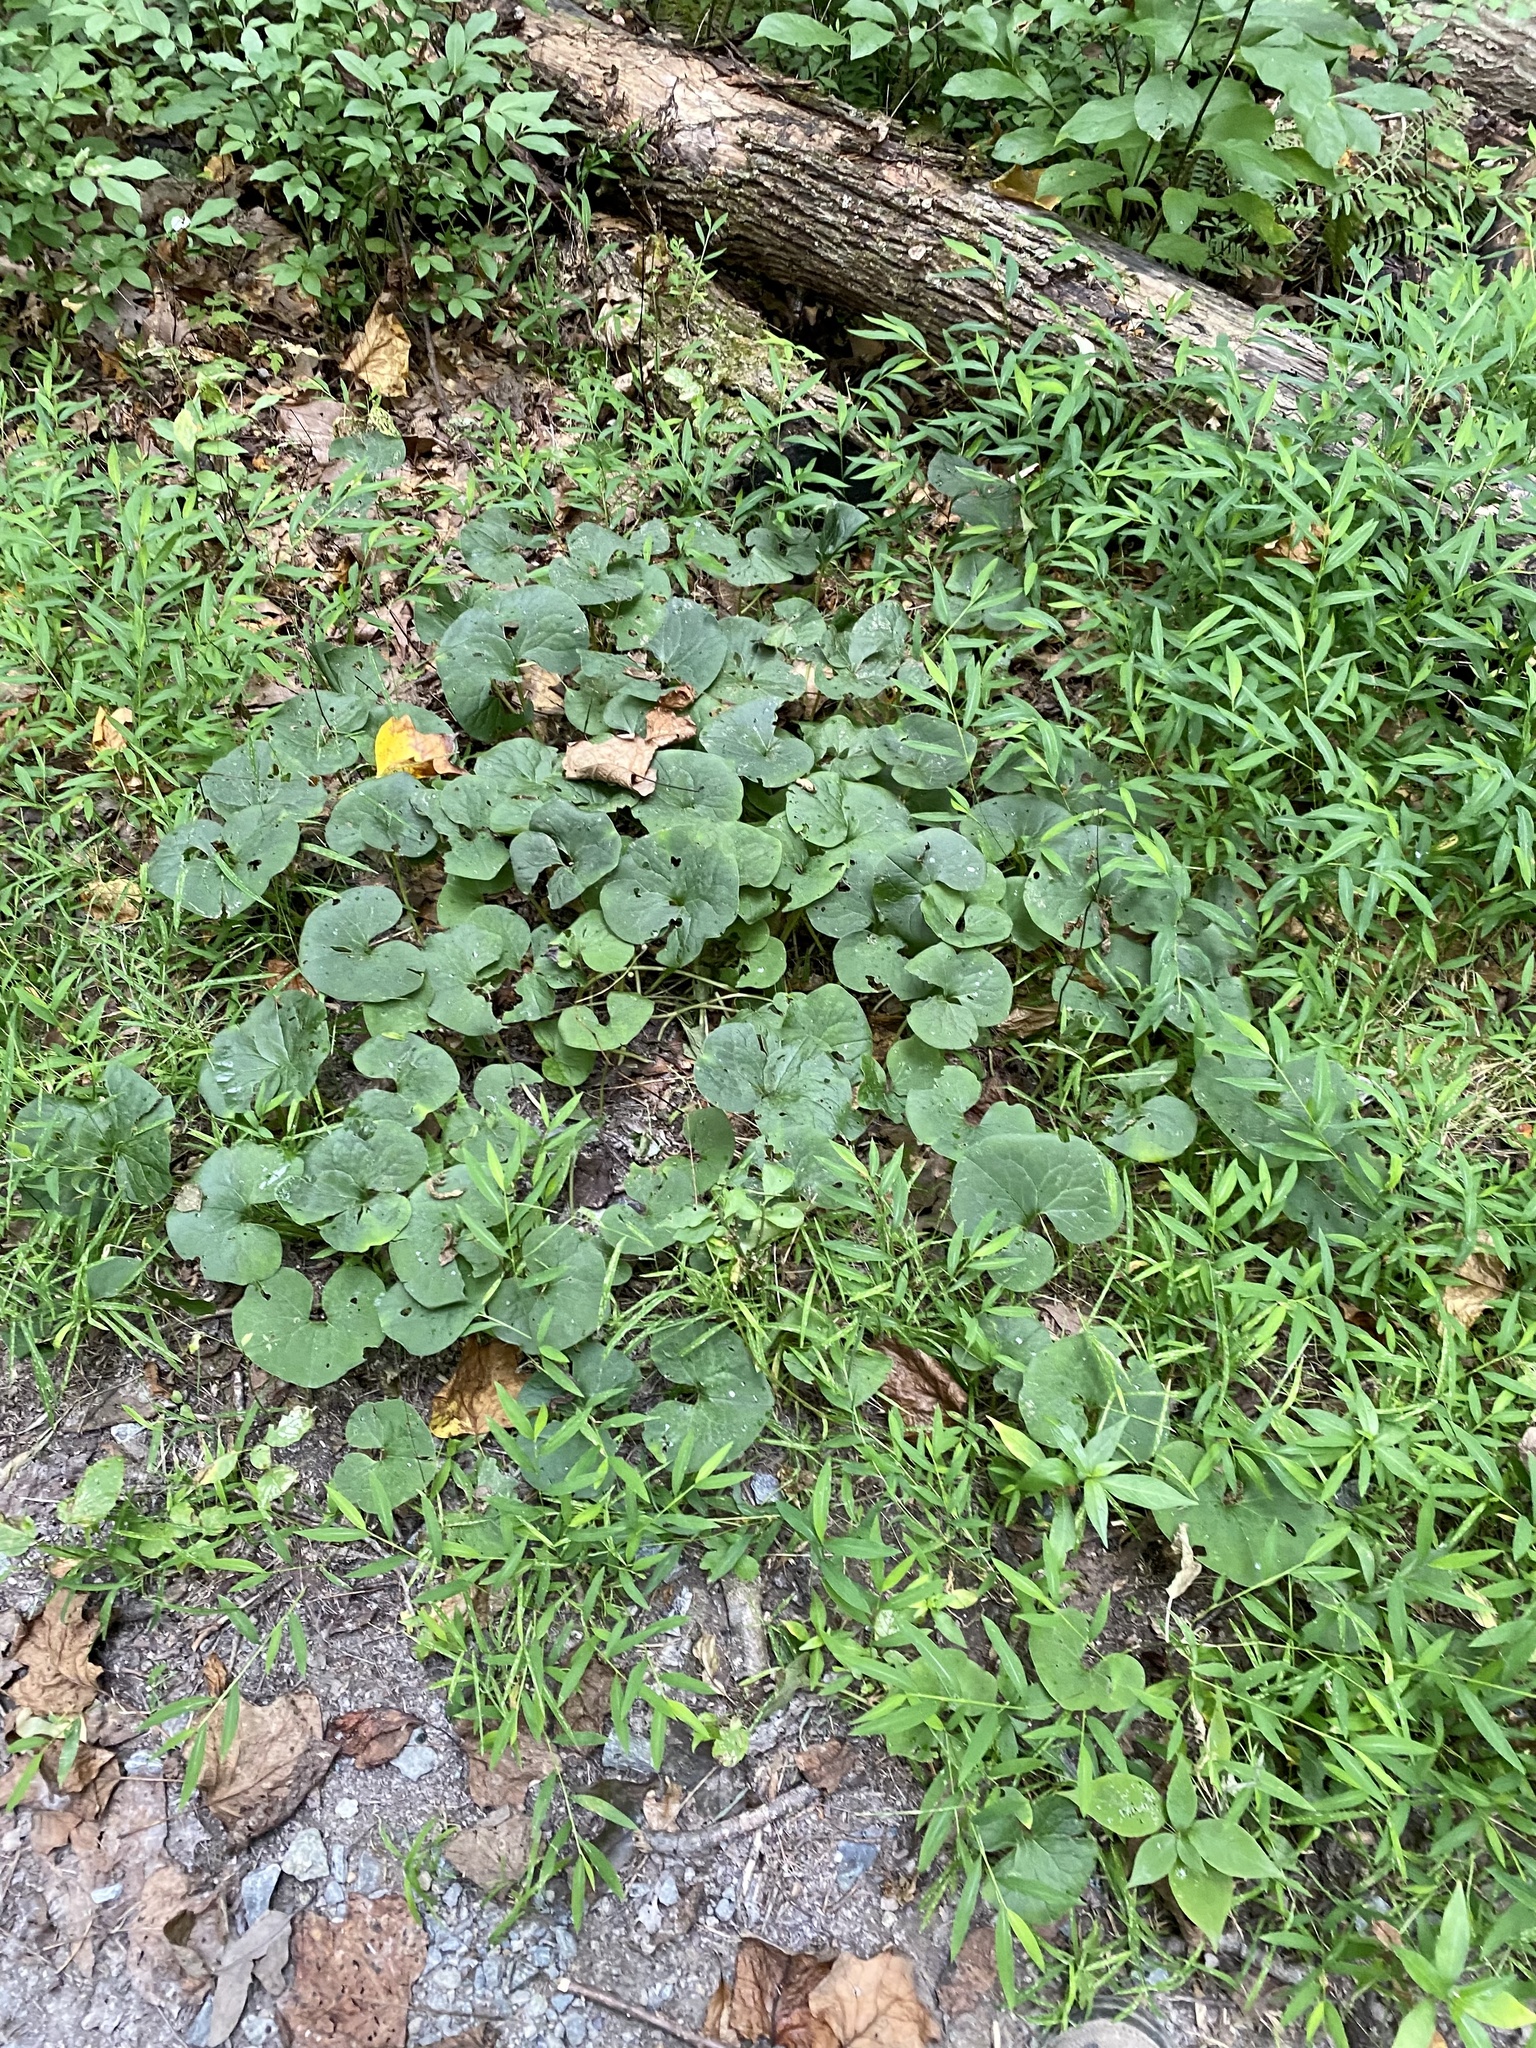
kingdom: Plantae
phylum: Tracheophyta
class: Magnoliopsida
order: Piperales
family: Aristolochiaceae
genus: Asarum
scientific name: Asarum canadense
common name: Wild ginger
